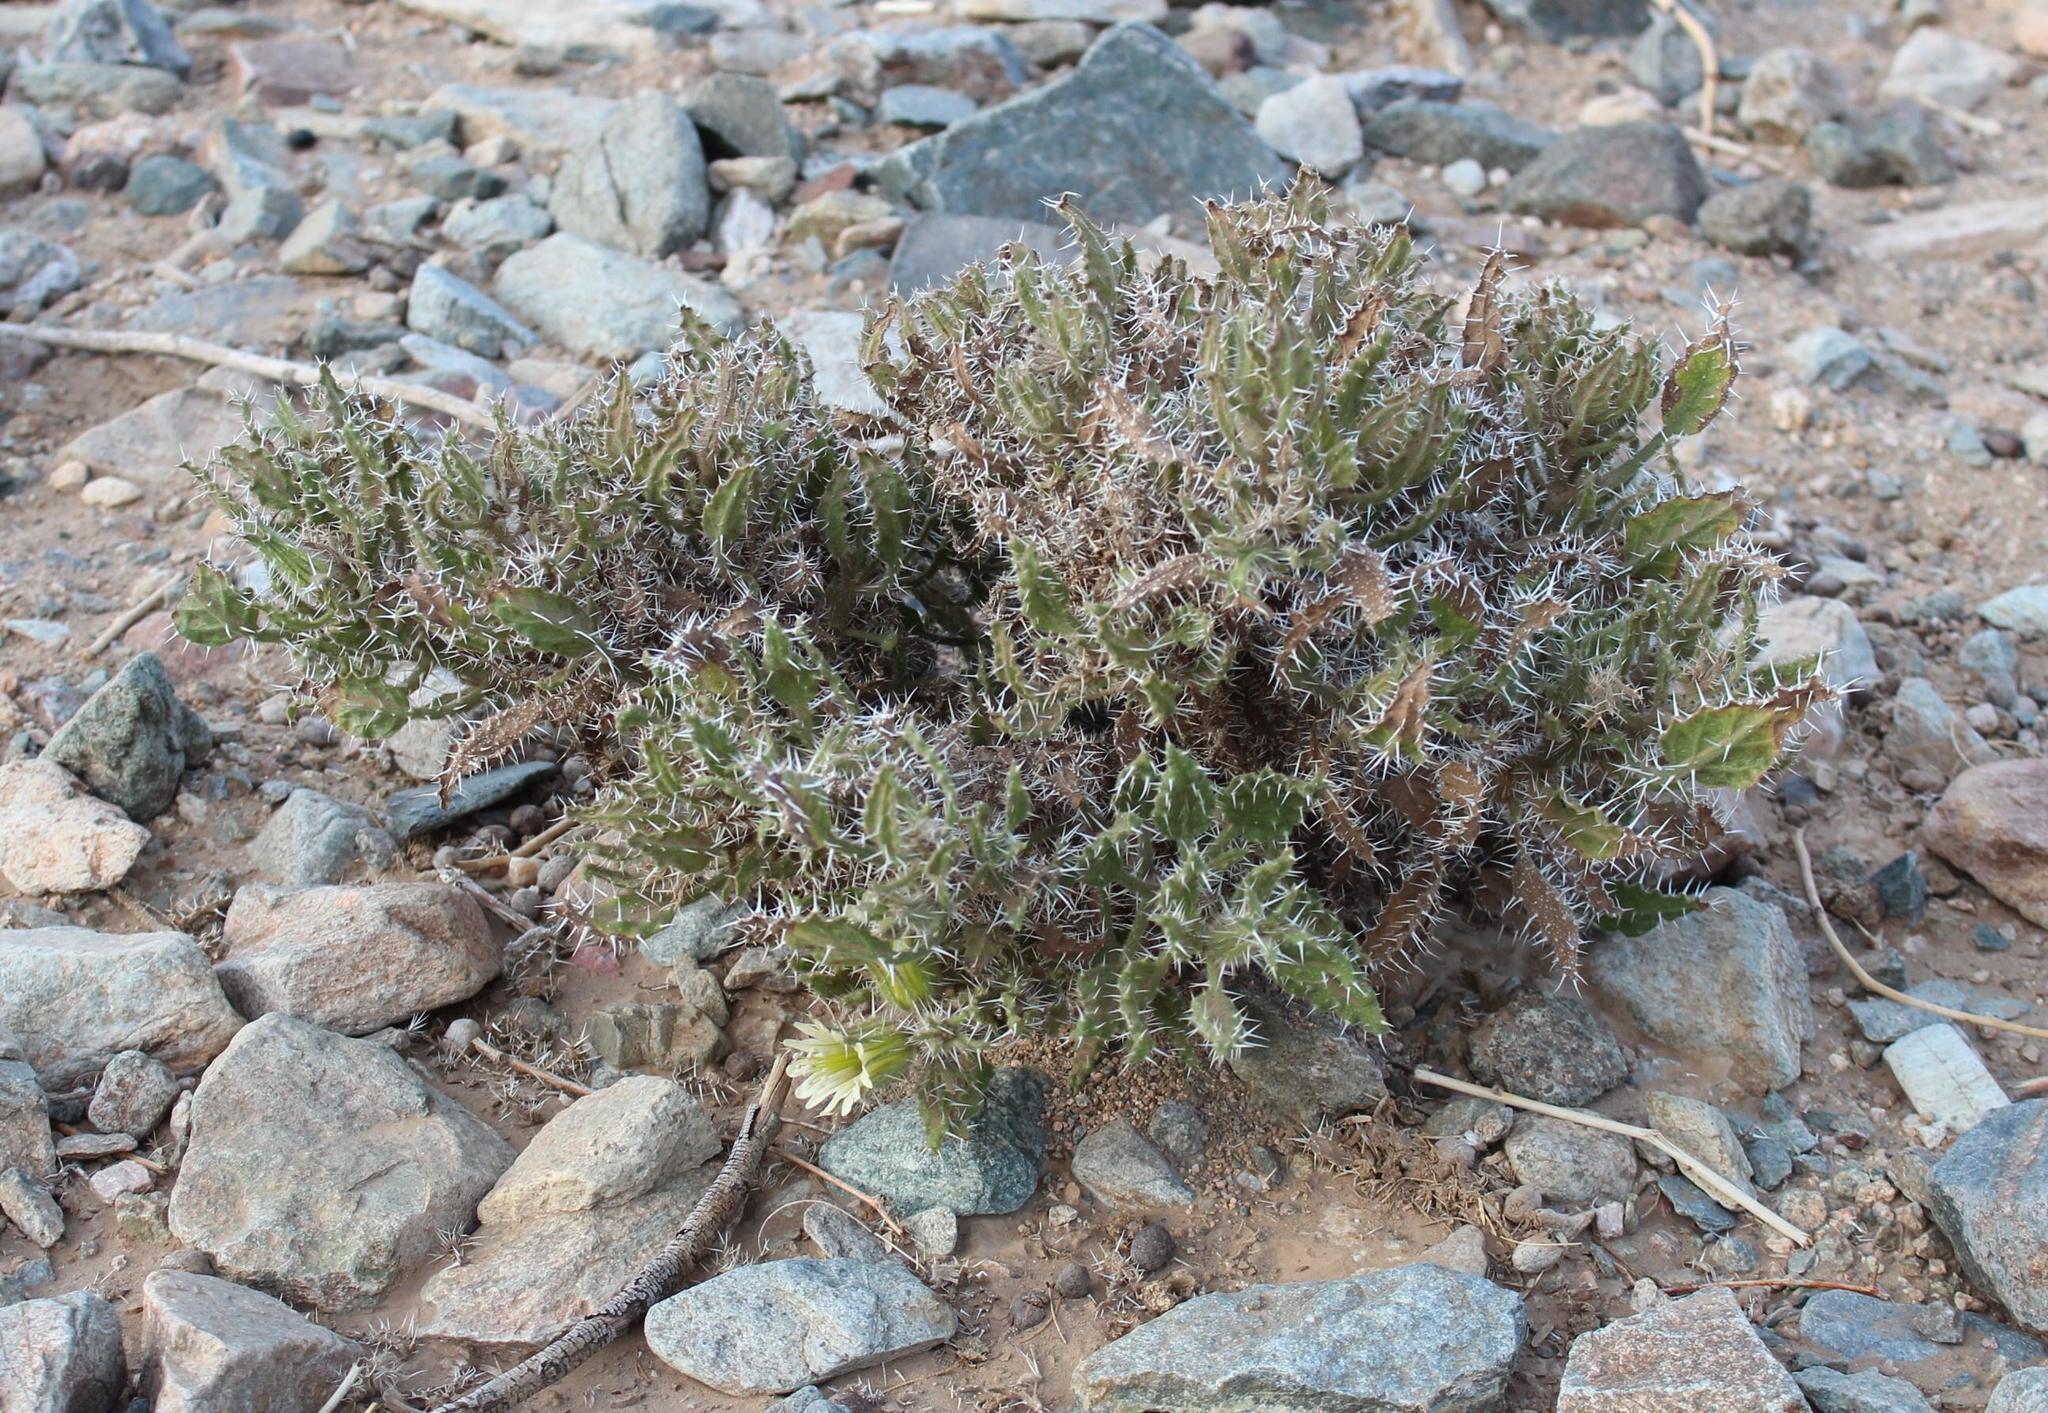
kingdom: Plantae
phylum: Tracheophyta
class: Magnoliopsida
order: Boraginales
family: Boraginaceae
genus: Codon
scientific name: Codon royenii
